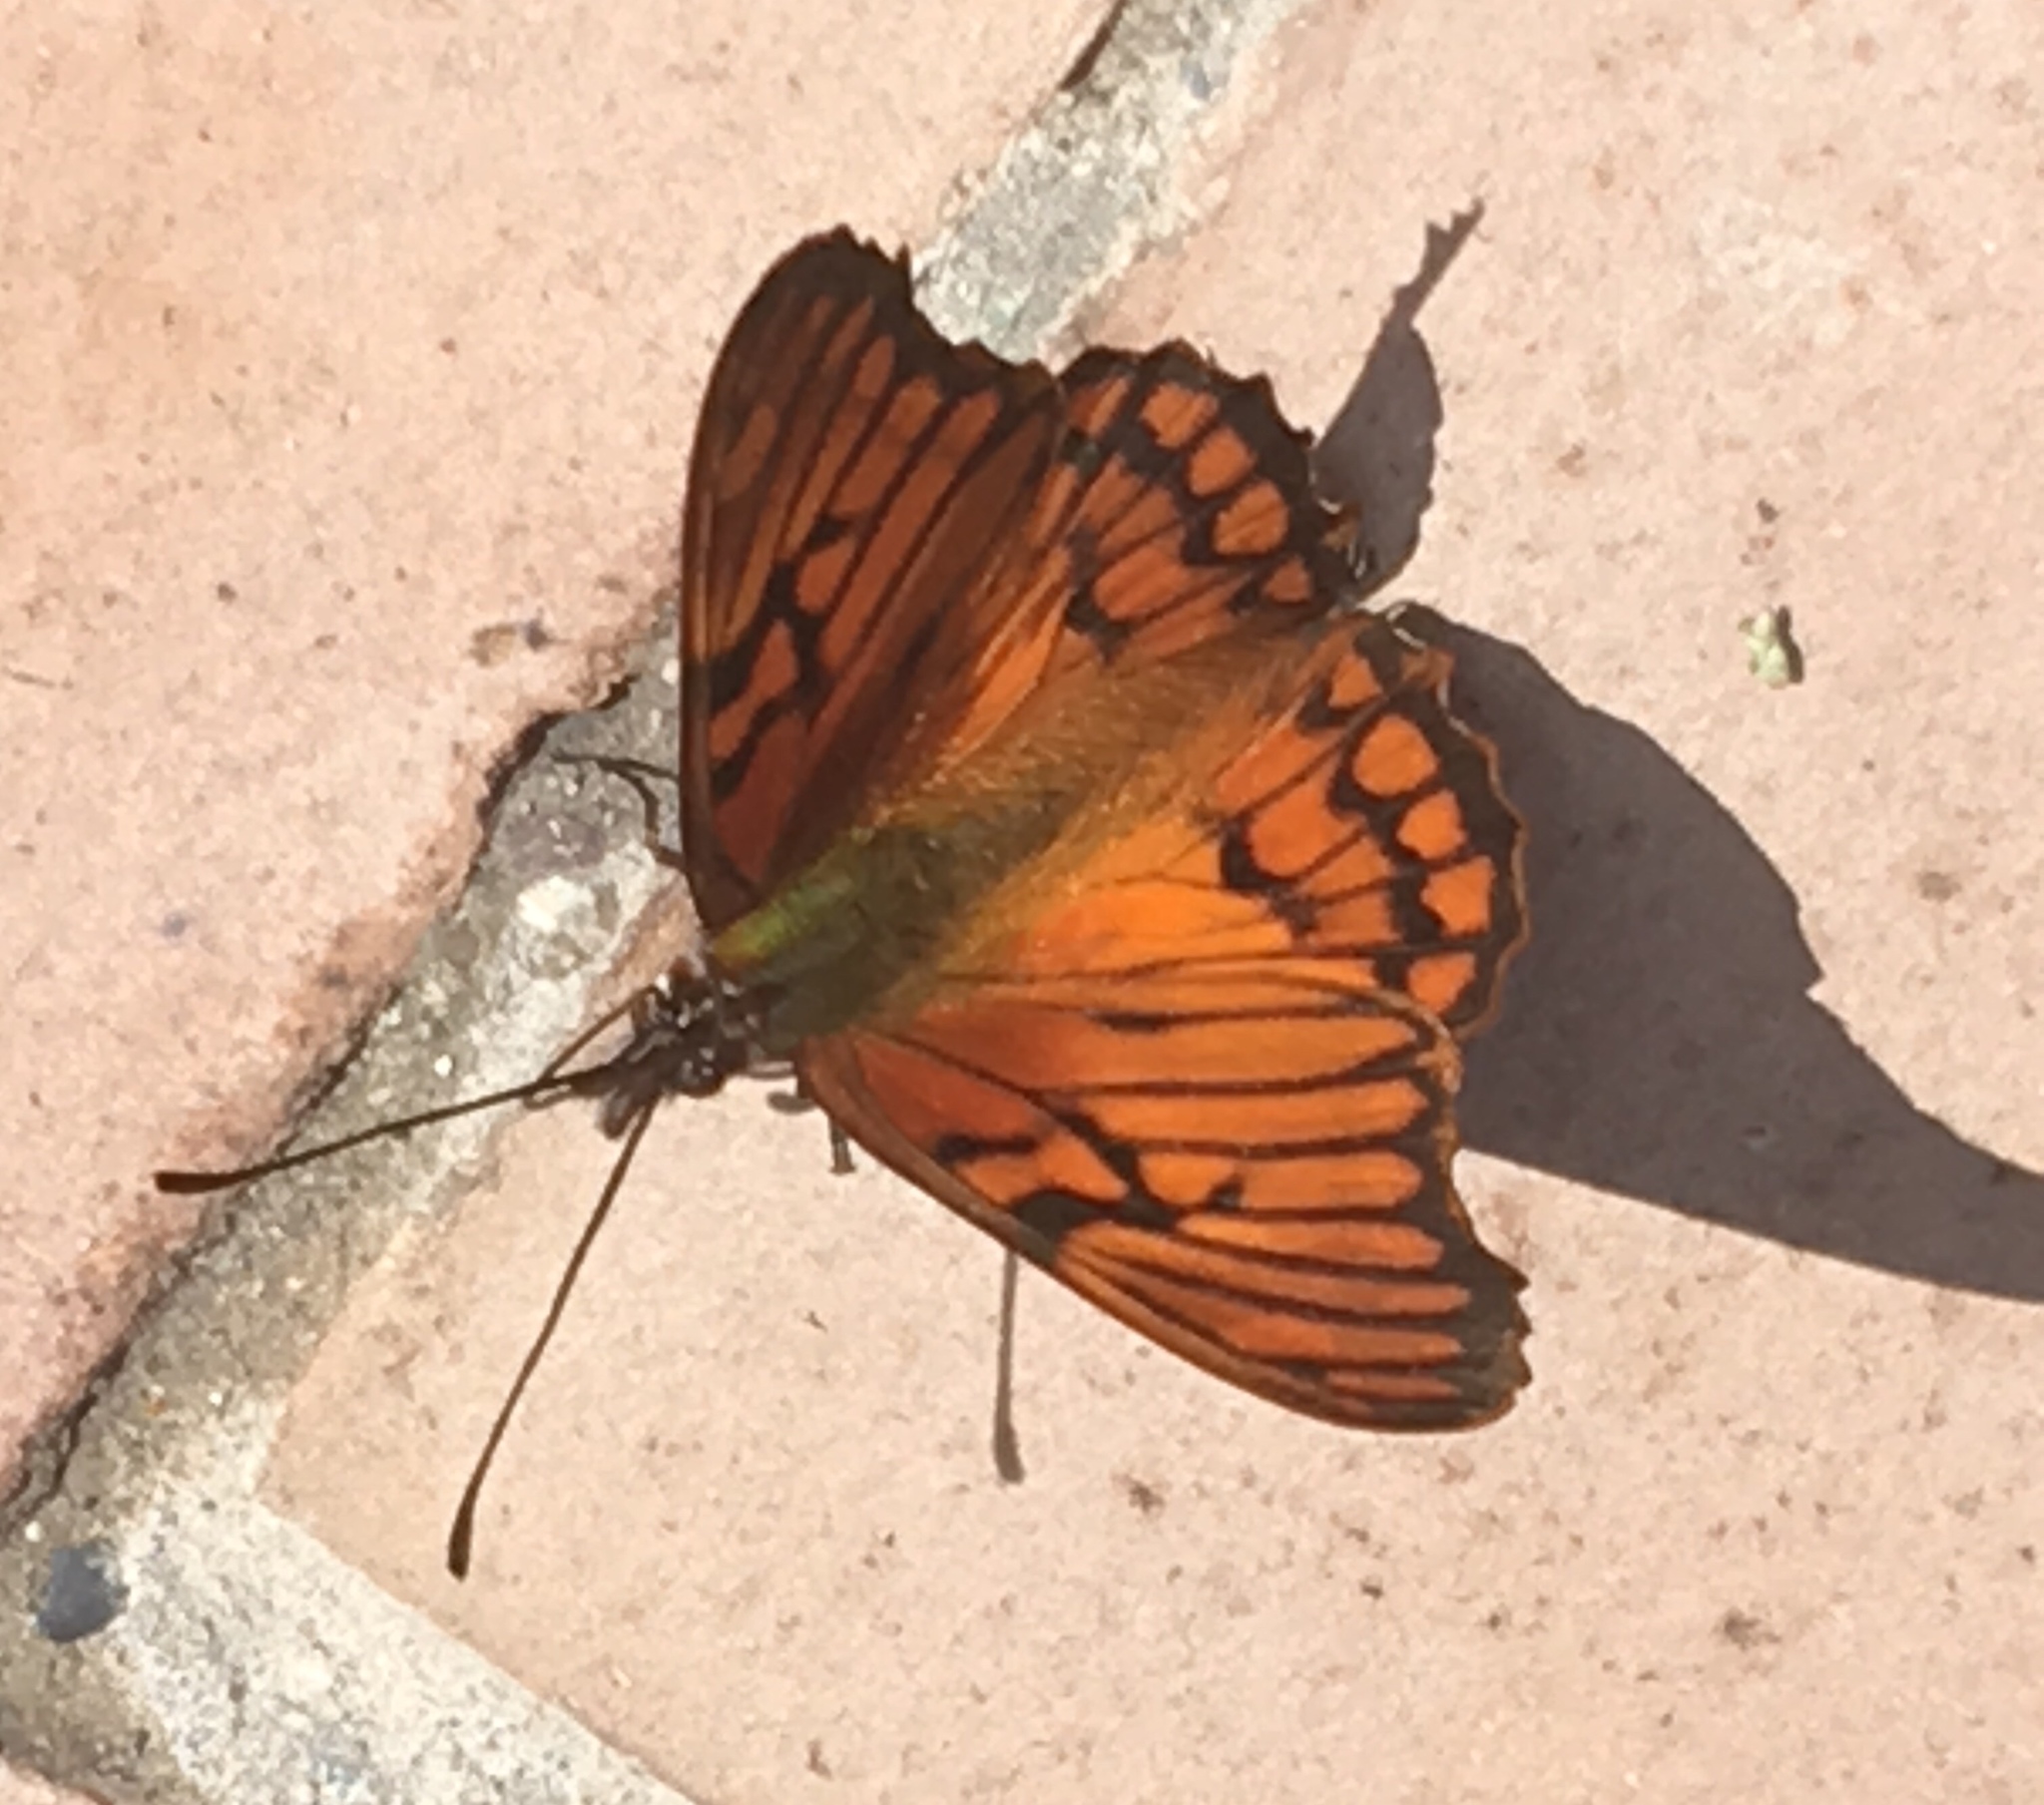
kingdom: Animalia
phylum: Arthropoda
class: Insecta
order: Lepidoptera
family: Nymphalidae
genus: Dione
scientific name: Dione glycera
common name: Andean silverspot
